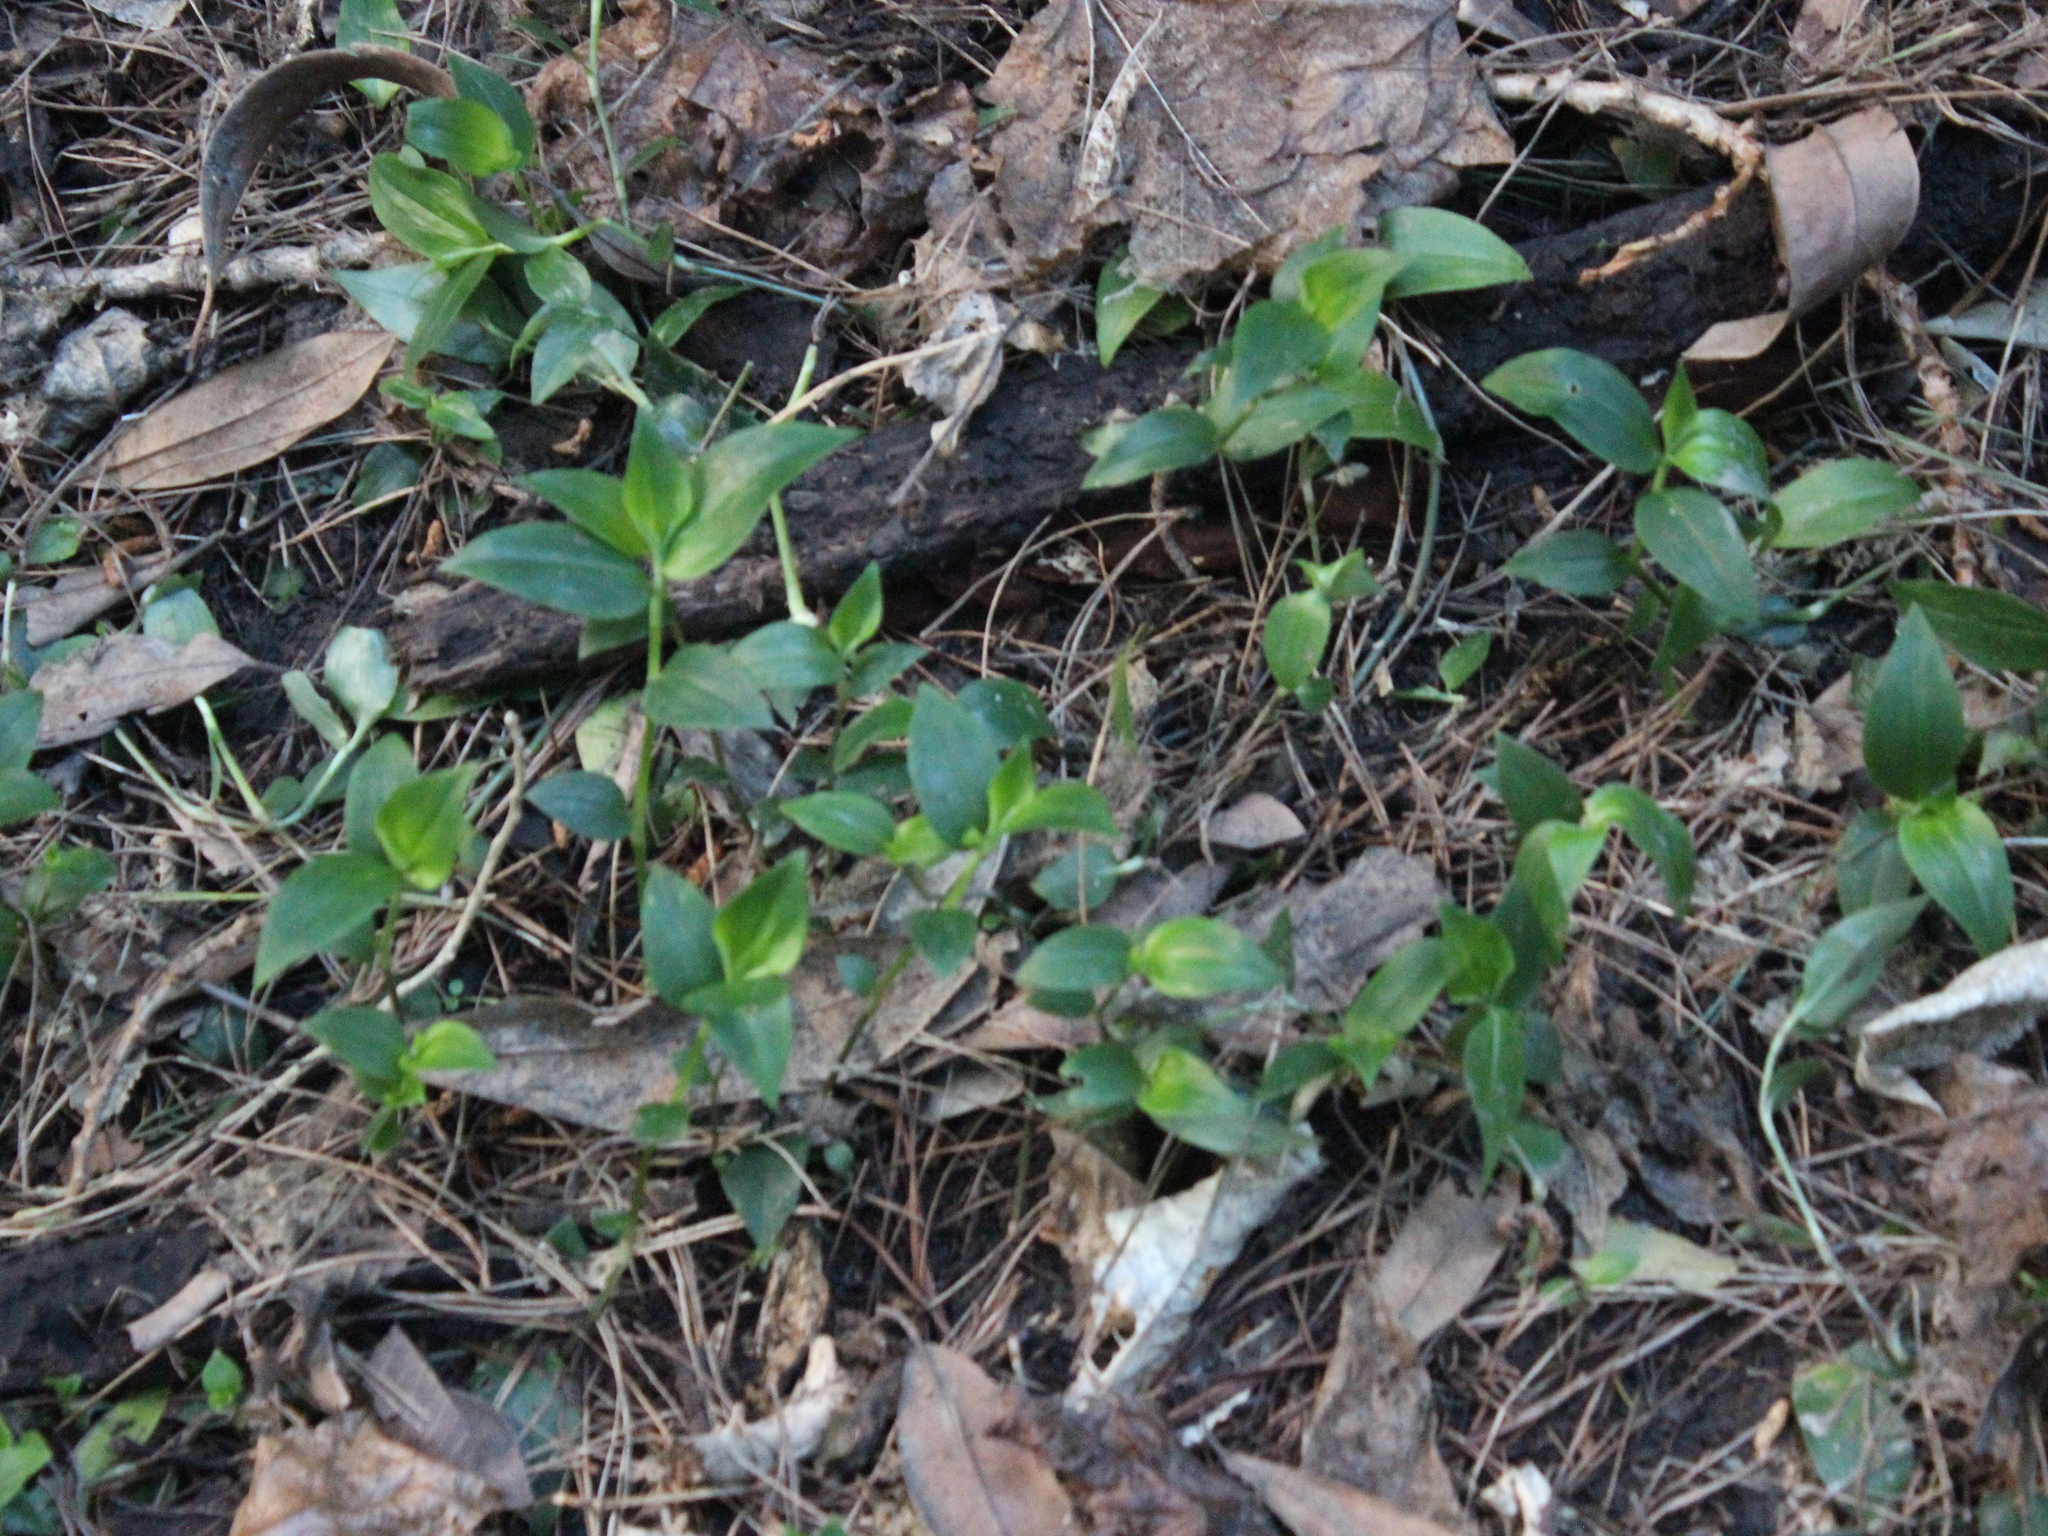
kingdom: Plantae
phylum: Tracheophyta
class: Liliopsida
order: Commelinales
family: Commelinaceae
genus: Tradescantia
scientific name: Tradescantia fluminensis
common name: Wandering-jew
